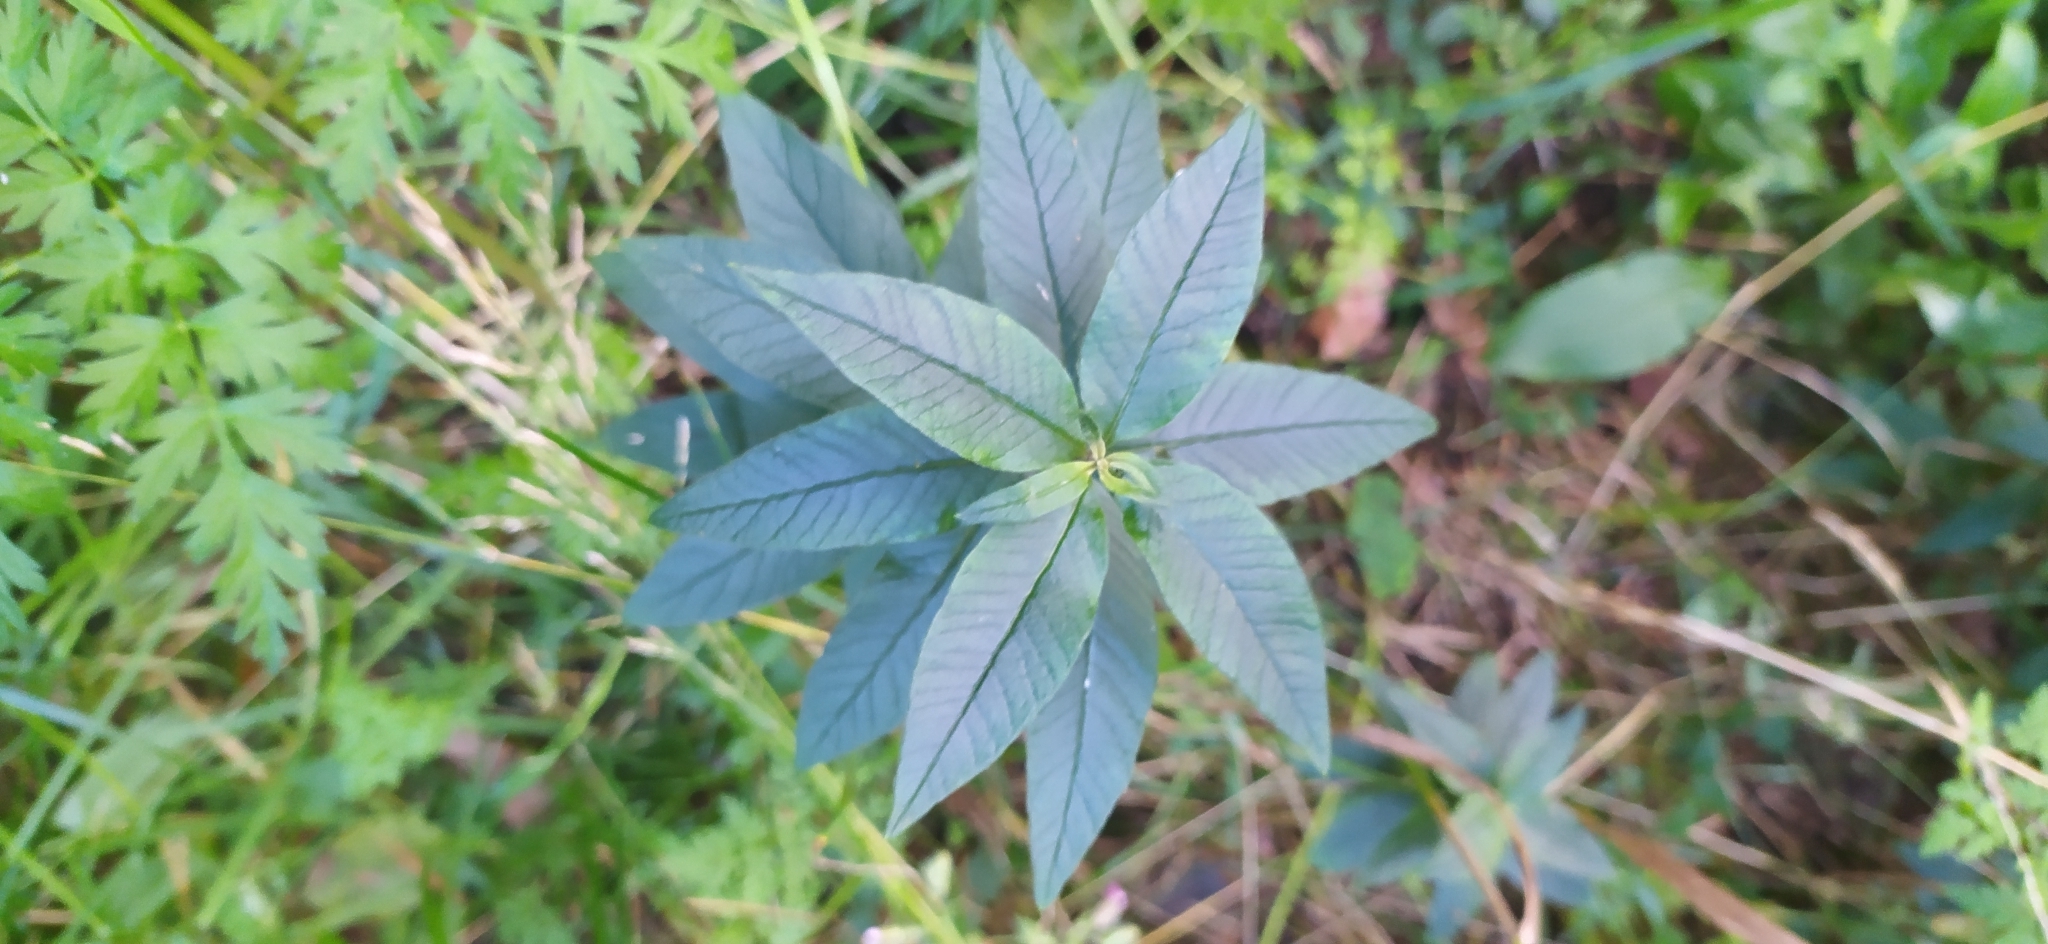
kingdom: Plantae
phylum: Tracheophyta
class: Magnoliopsida
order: Ericales
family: Primulaceae
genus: Lysimachia
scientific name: Lysimachia vulgaris
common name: Yellow loosestrife
